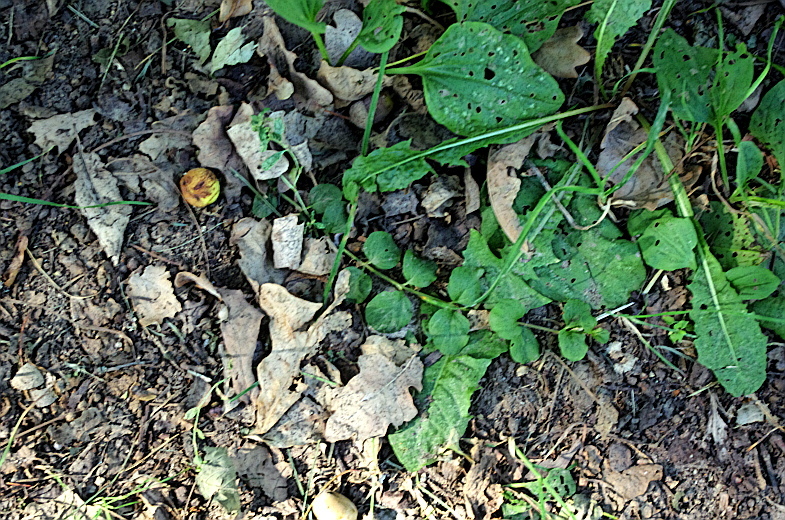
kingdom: Plantae
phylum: Tracheophyta
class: Magnoliopsida
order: Ericales
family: Primulaceae
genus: Lysimachia
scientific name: Lysimachia nummularia
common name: Moneywort
